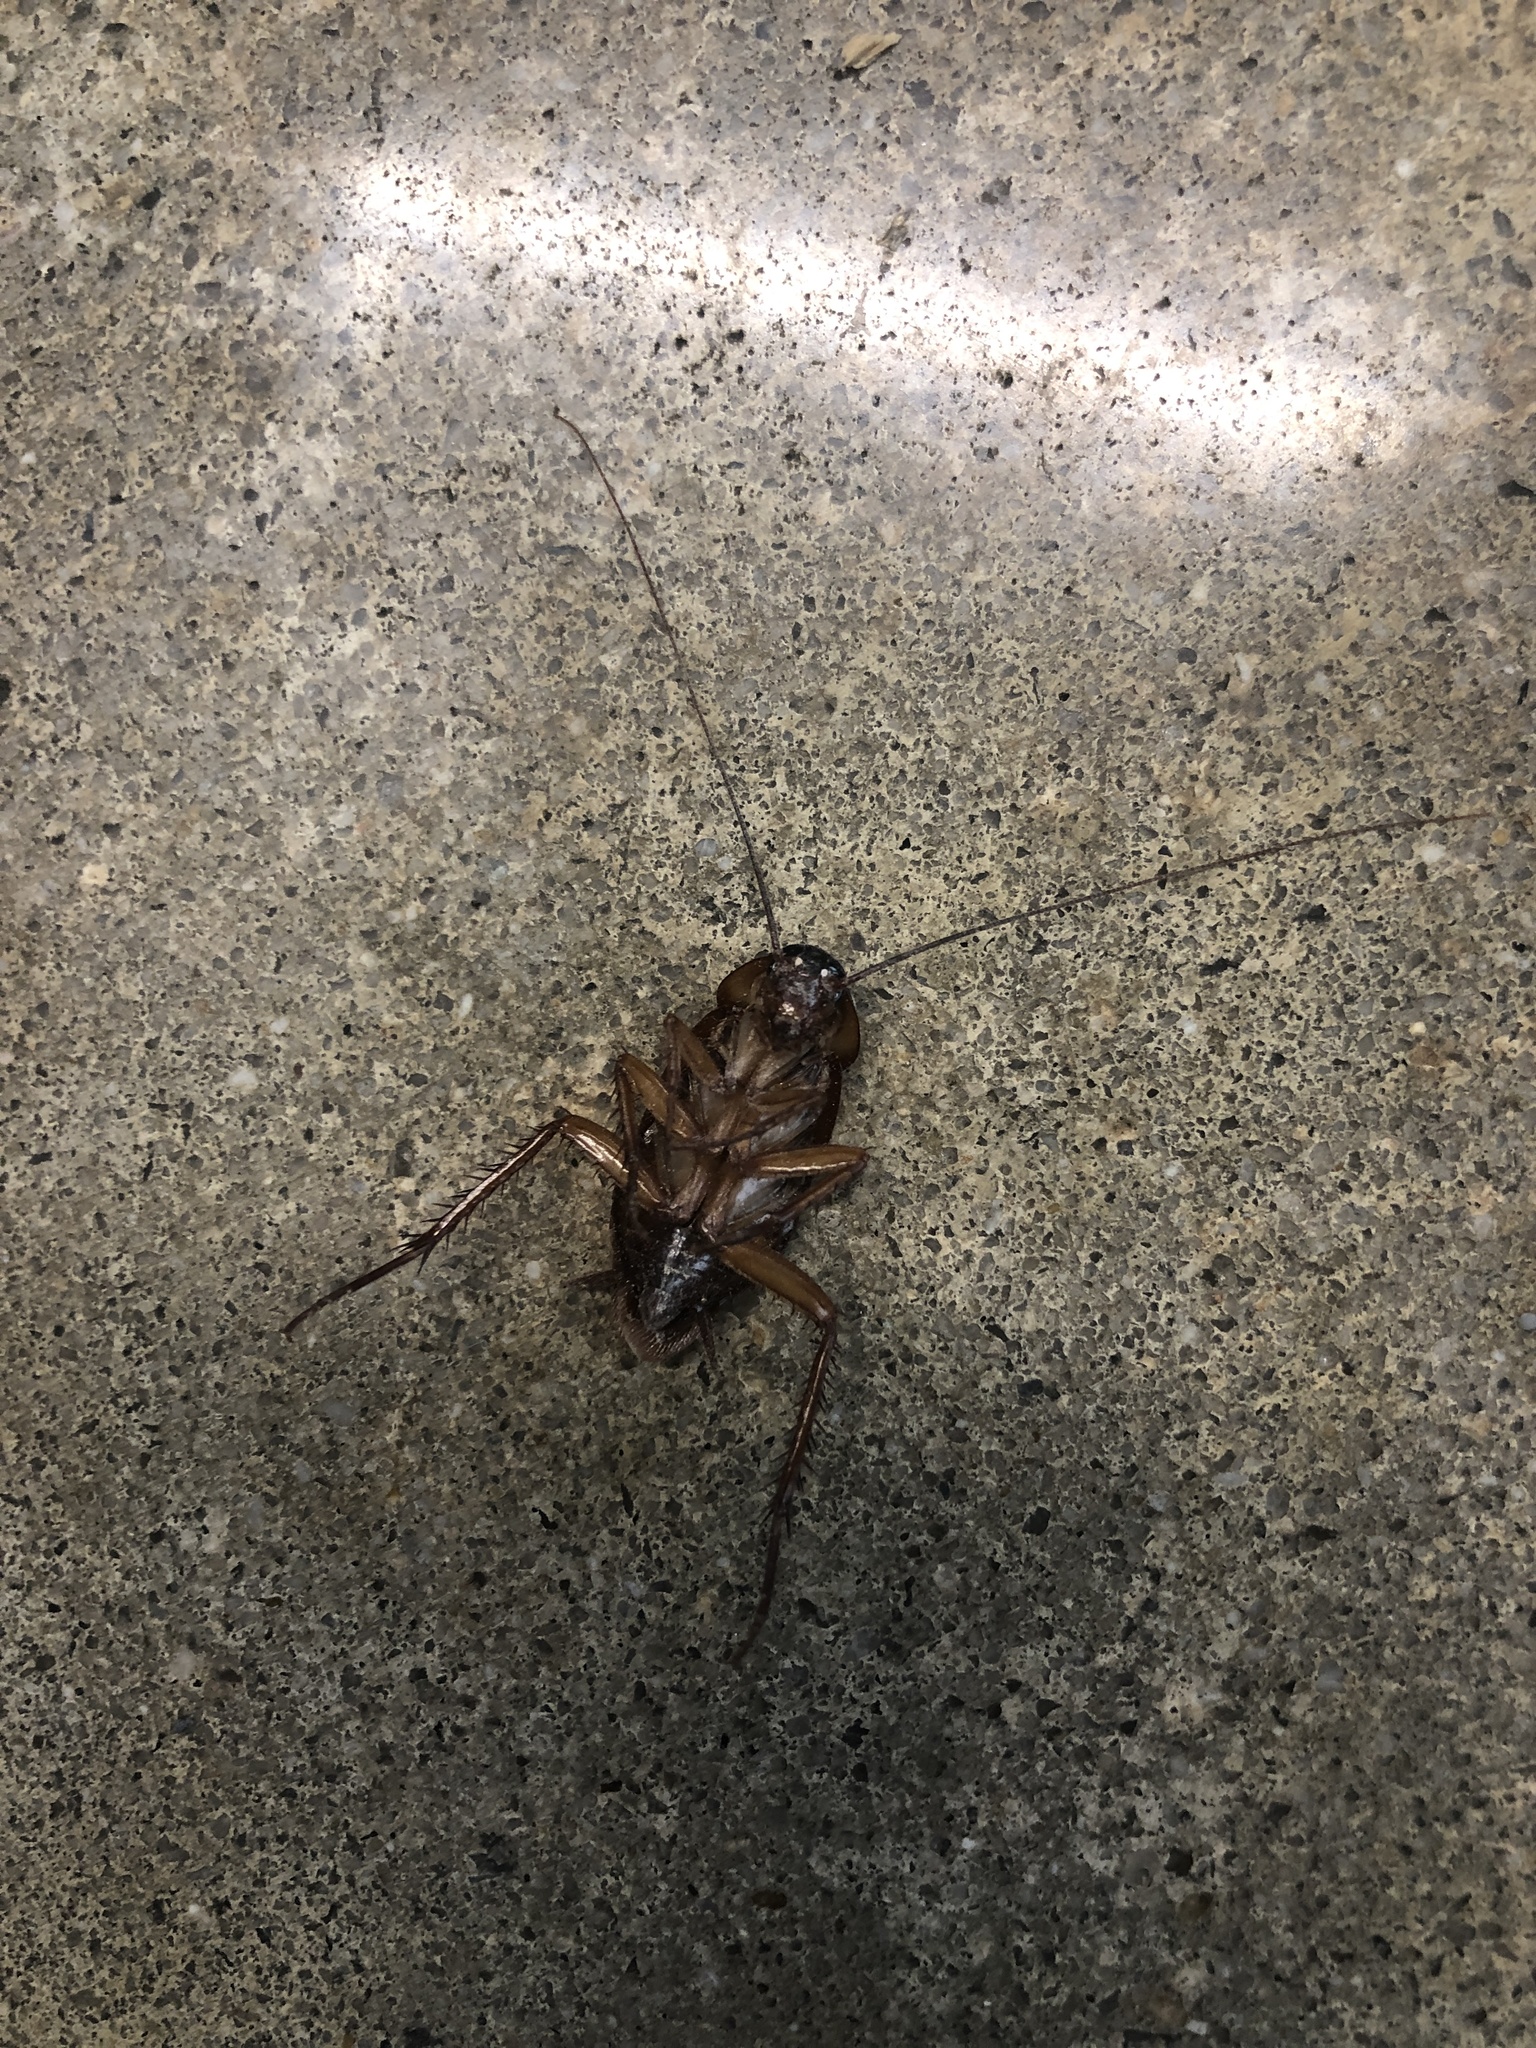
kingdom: Animalia
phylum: Arthropoda
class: Insecta
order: Blattodea
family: Blattidae
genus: Periplaneta
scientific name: Periplaneta americana
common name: American cockroach
